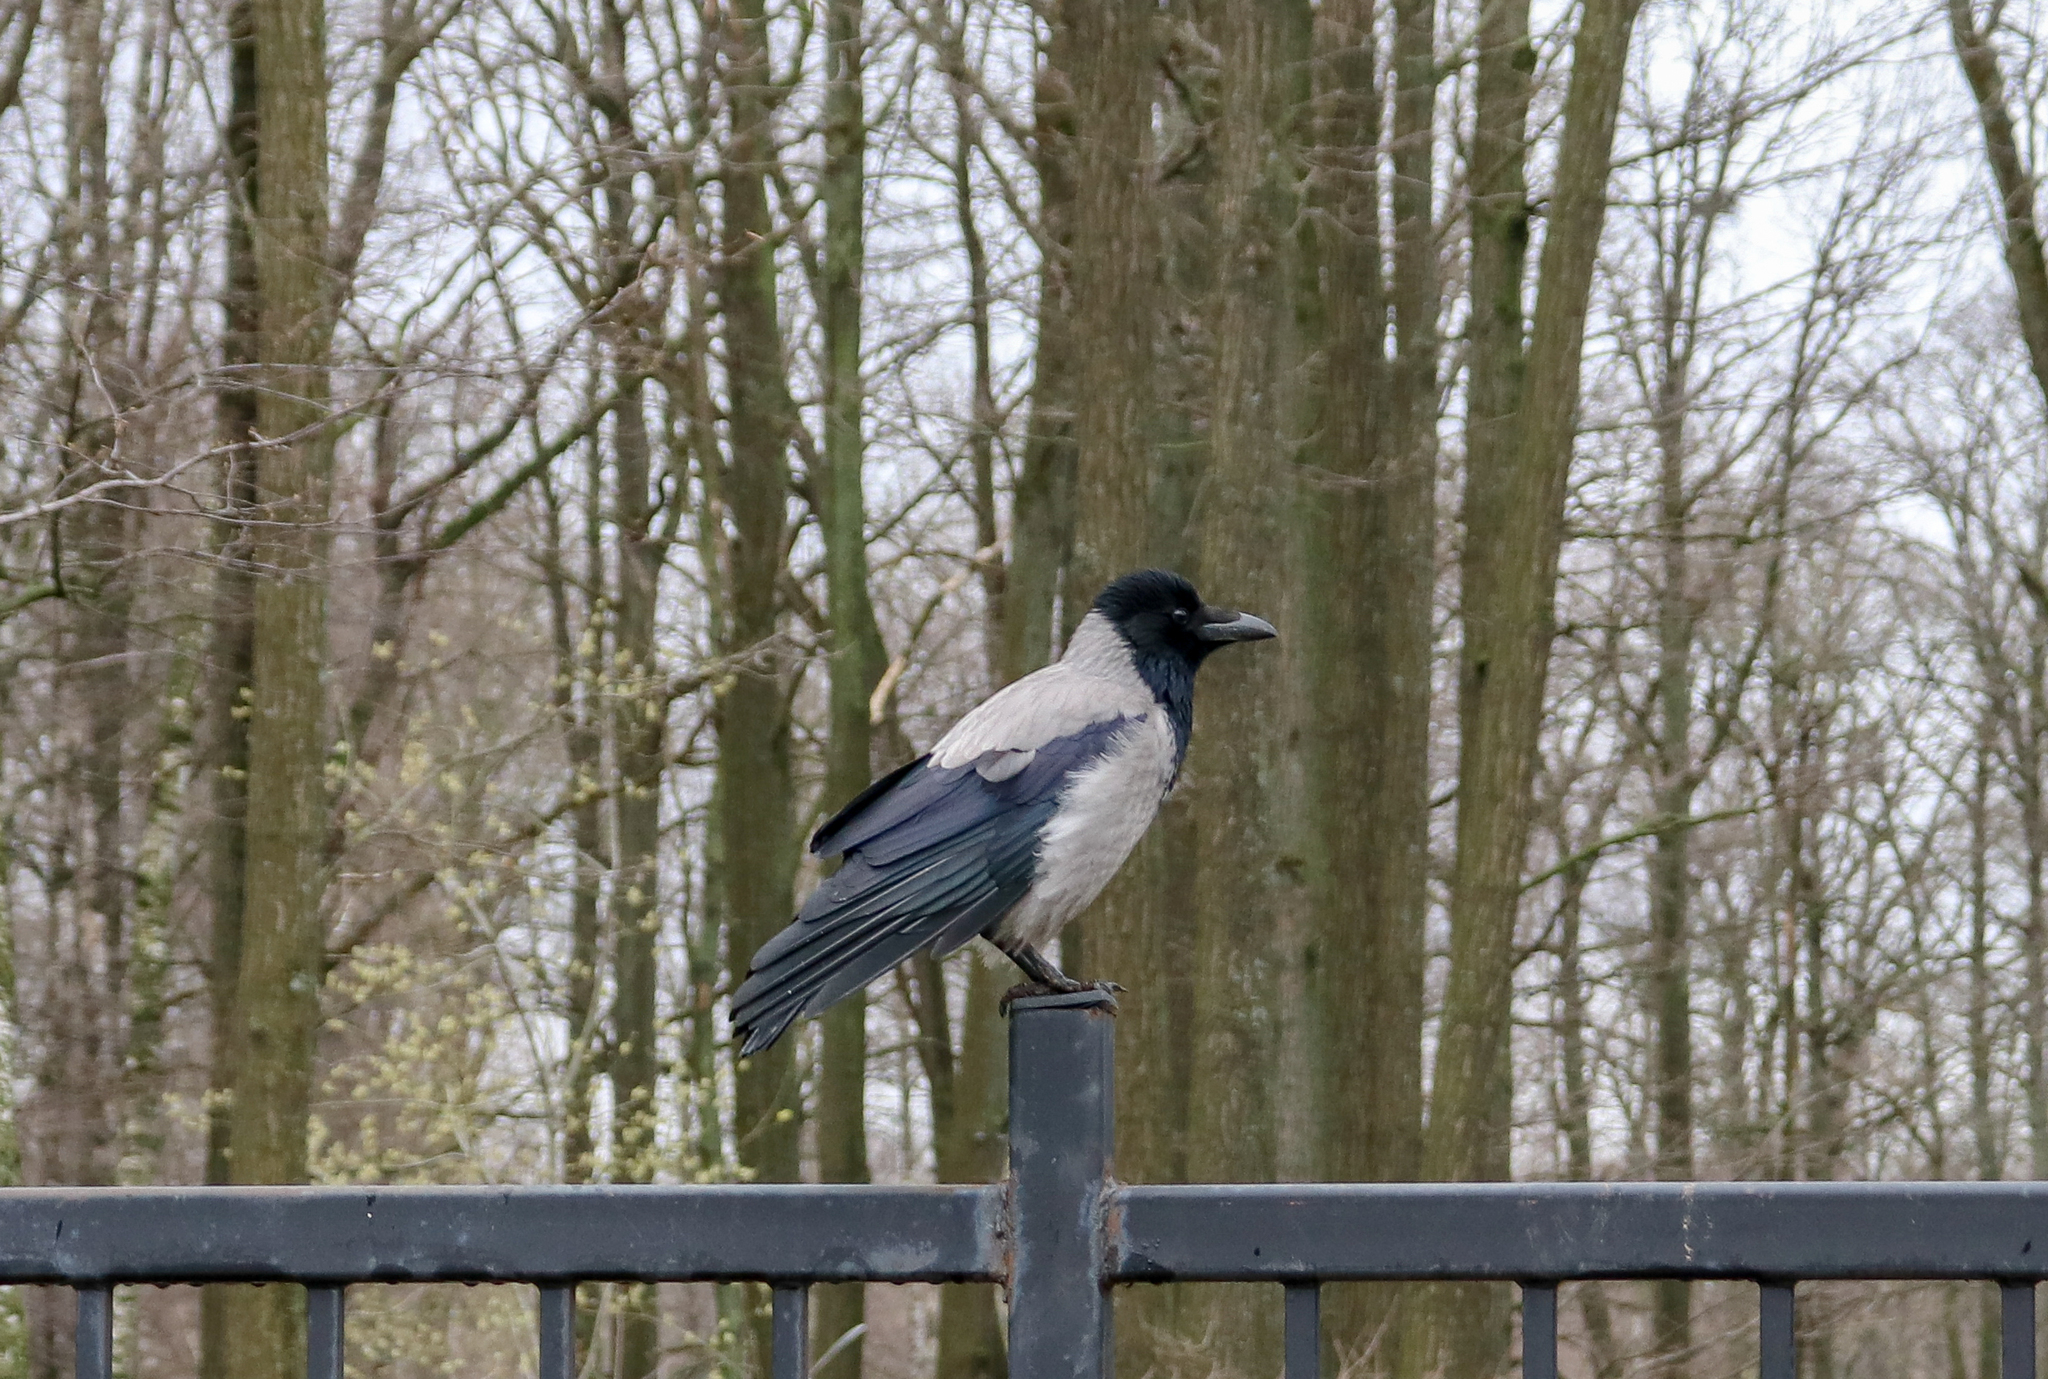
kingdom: Animalia
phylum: Chordata
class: Aves
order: Passeriformes
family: Corvidae
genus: Corvus
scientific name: Corvus cornix
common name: Hooded crow
